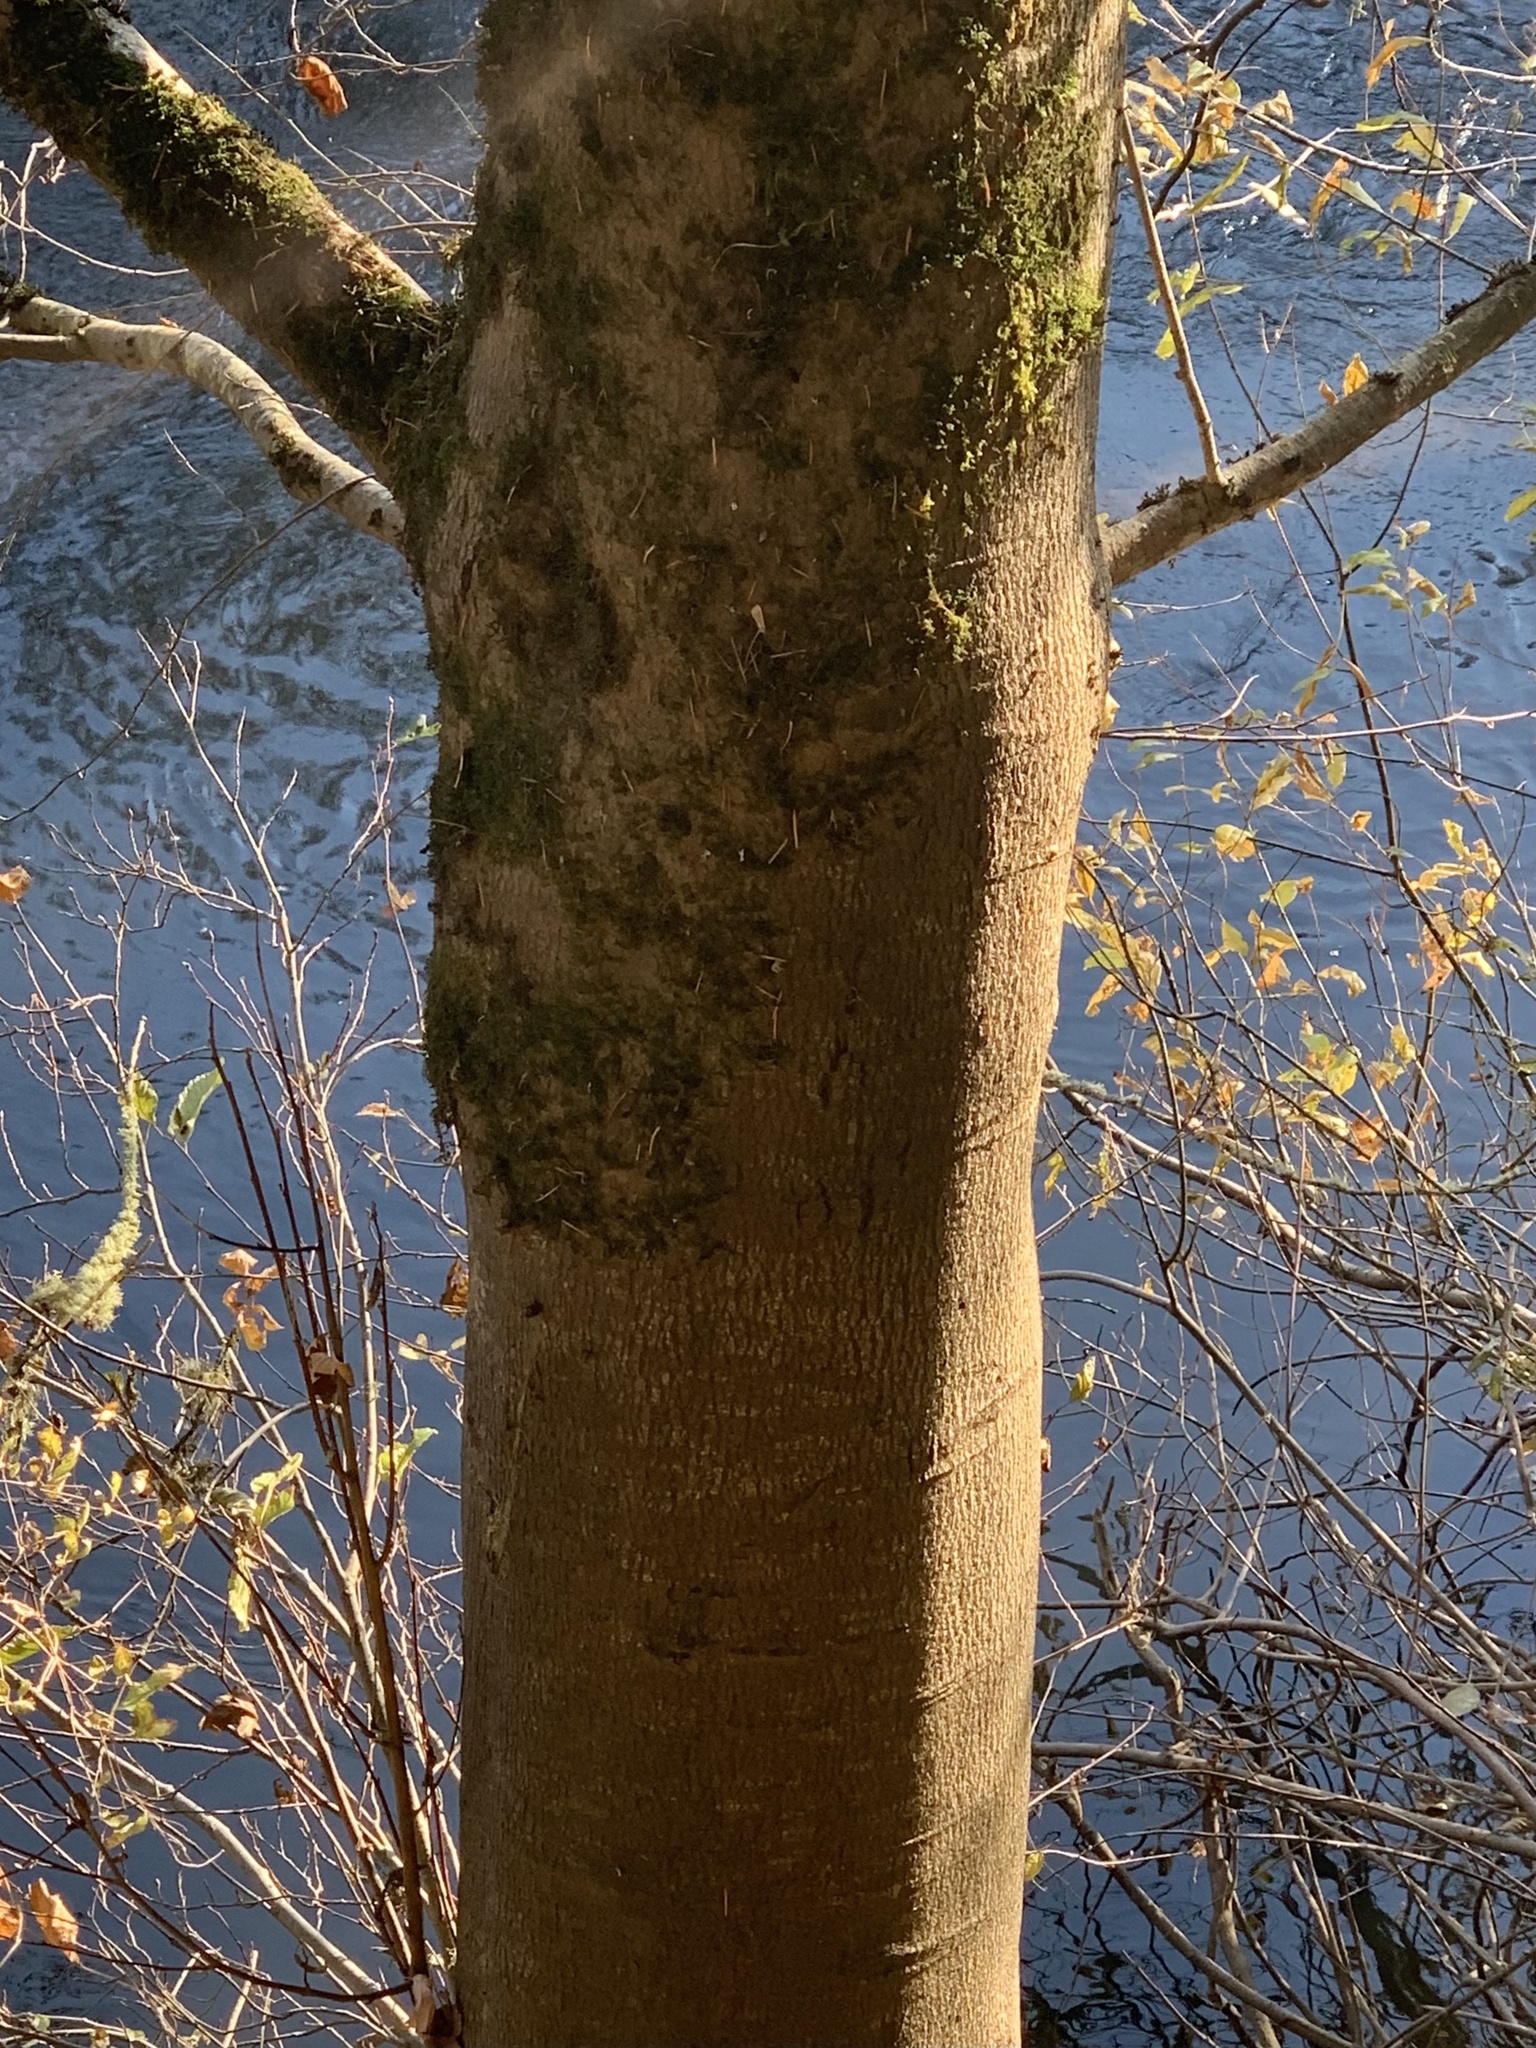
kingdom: Plantae
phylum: Tracheophyta
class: Magnoliopsida
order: Fagales
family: Betulaceae
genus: Alnus
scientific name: Alnus rhombifolia
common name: California alder
